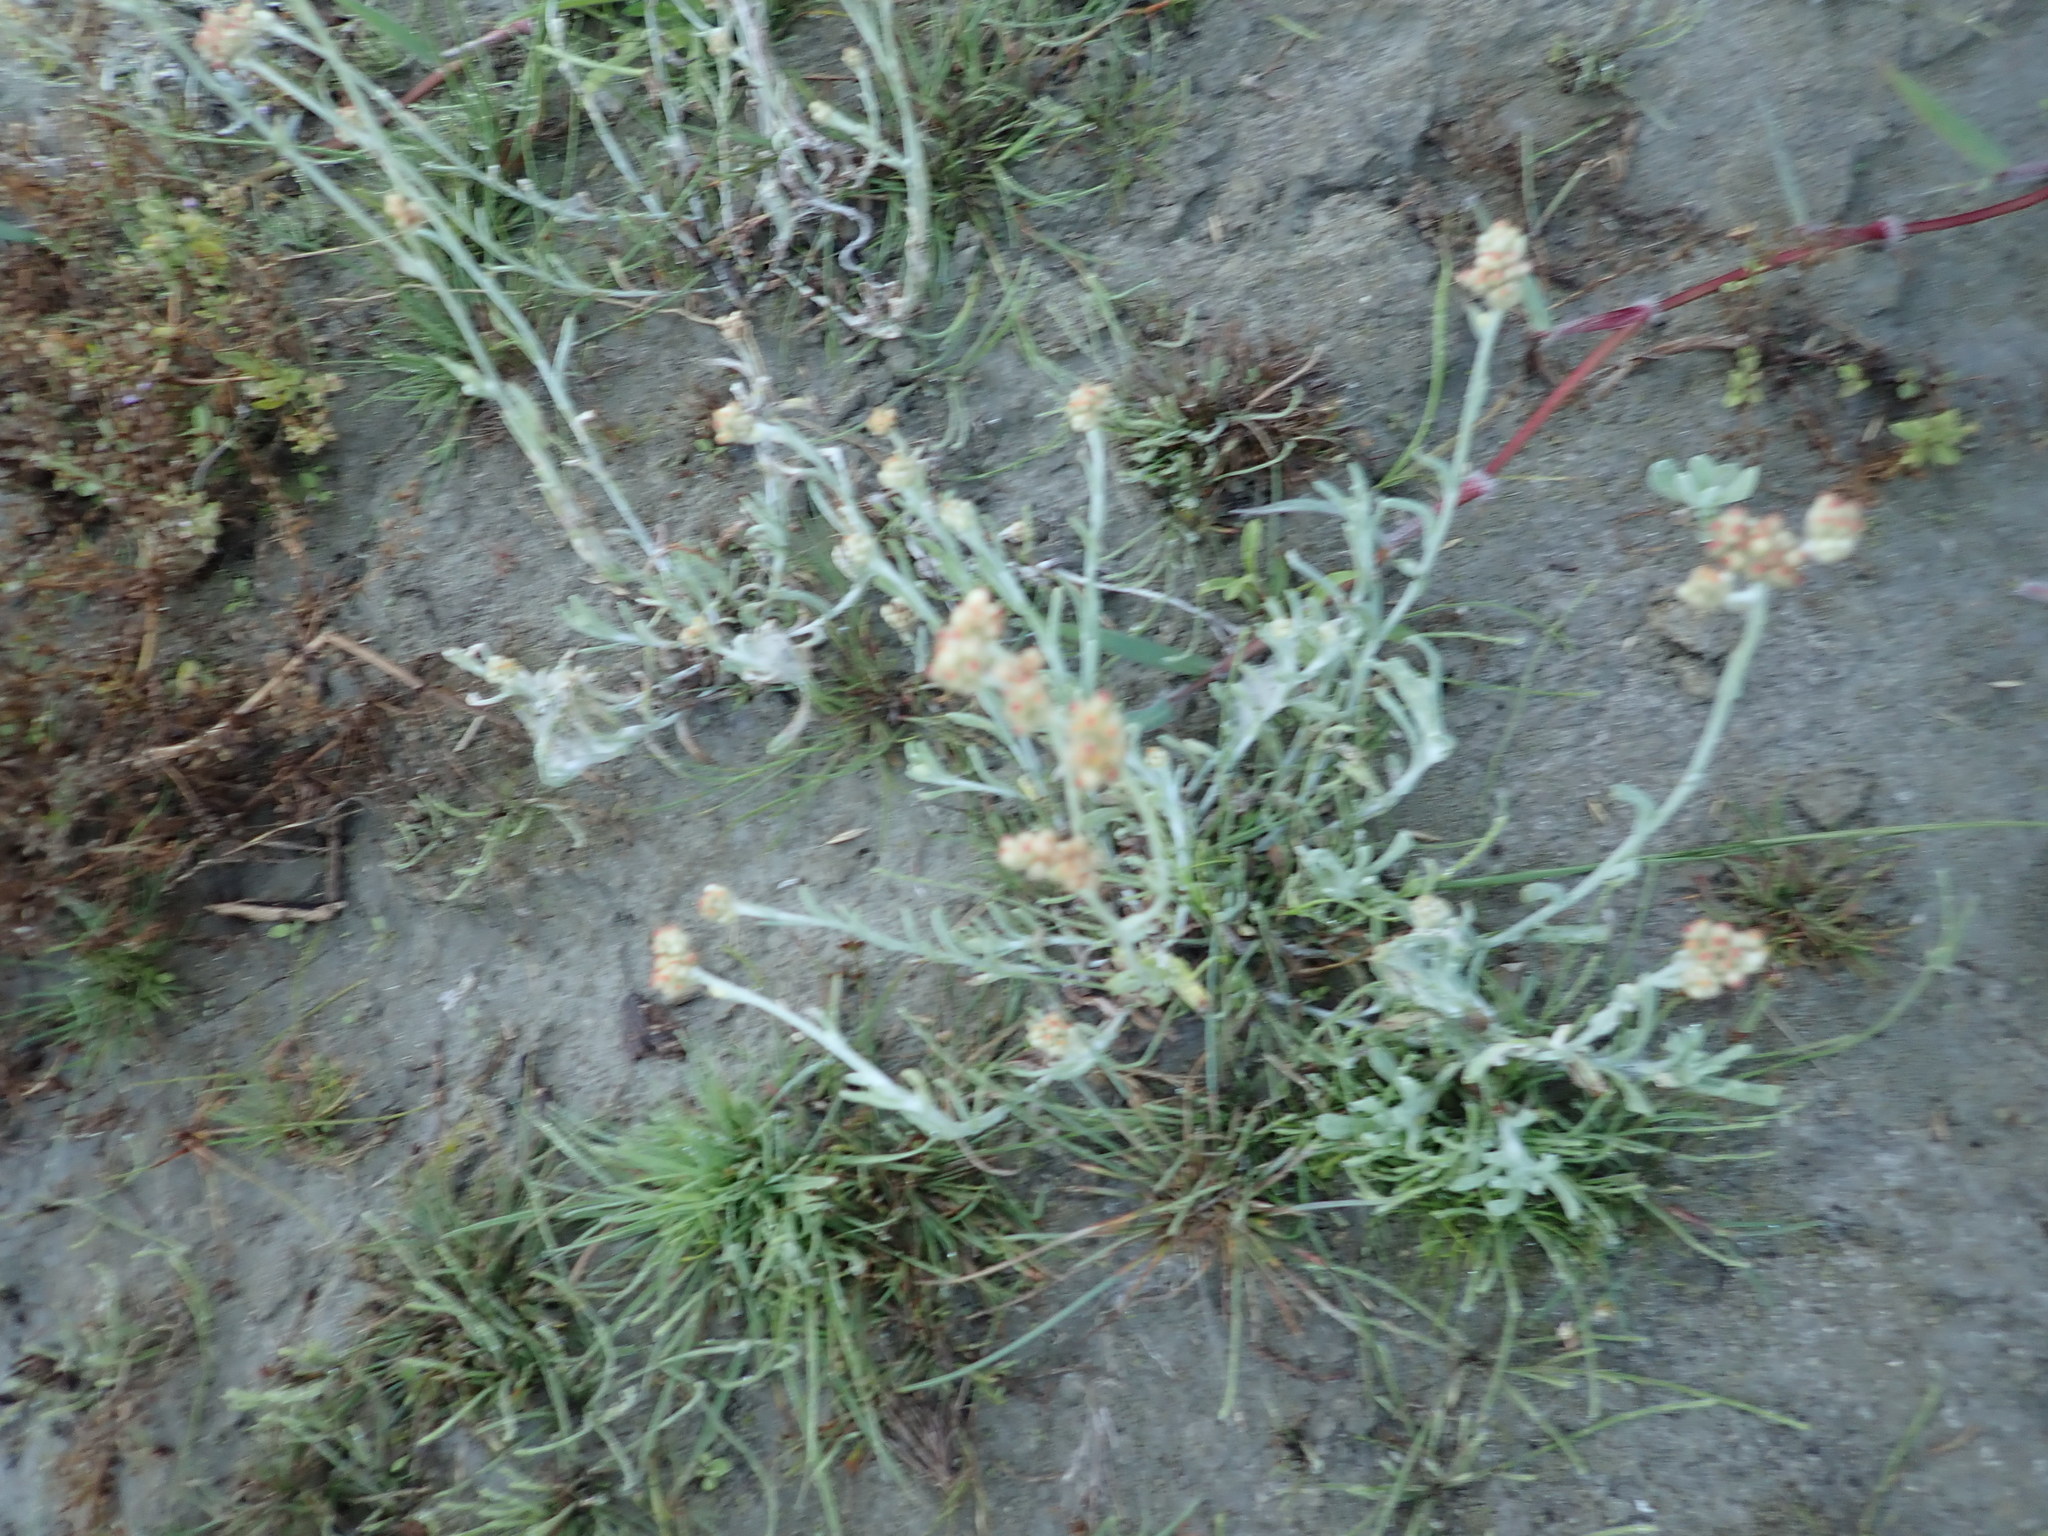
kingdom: Plantae
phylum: Tracheophyta
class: Magnoliopsida
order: Asterales
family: Asteraceae
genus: Helichrysum
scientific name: Helichrysum luteoalbum
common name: Daisy
